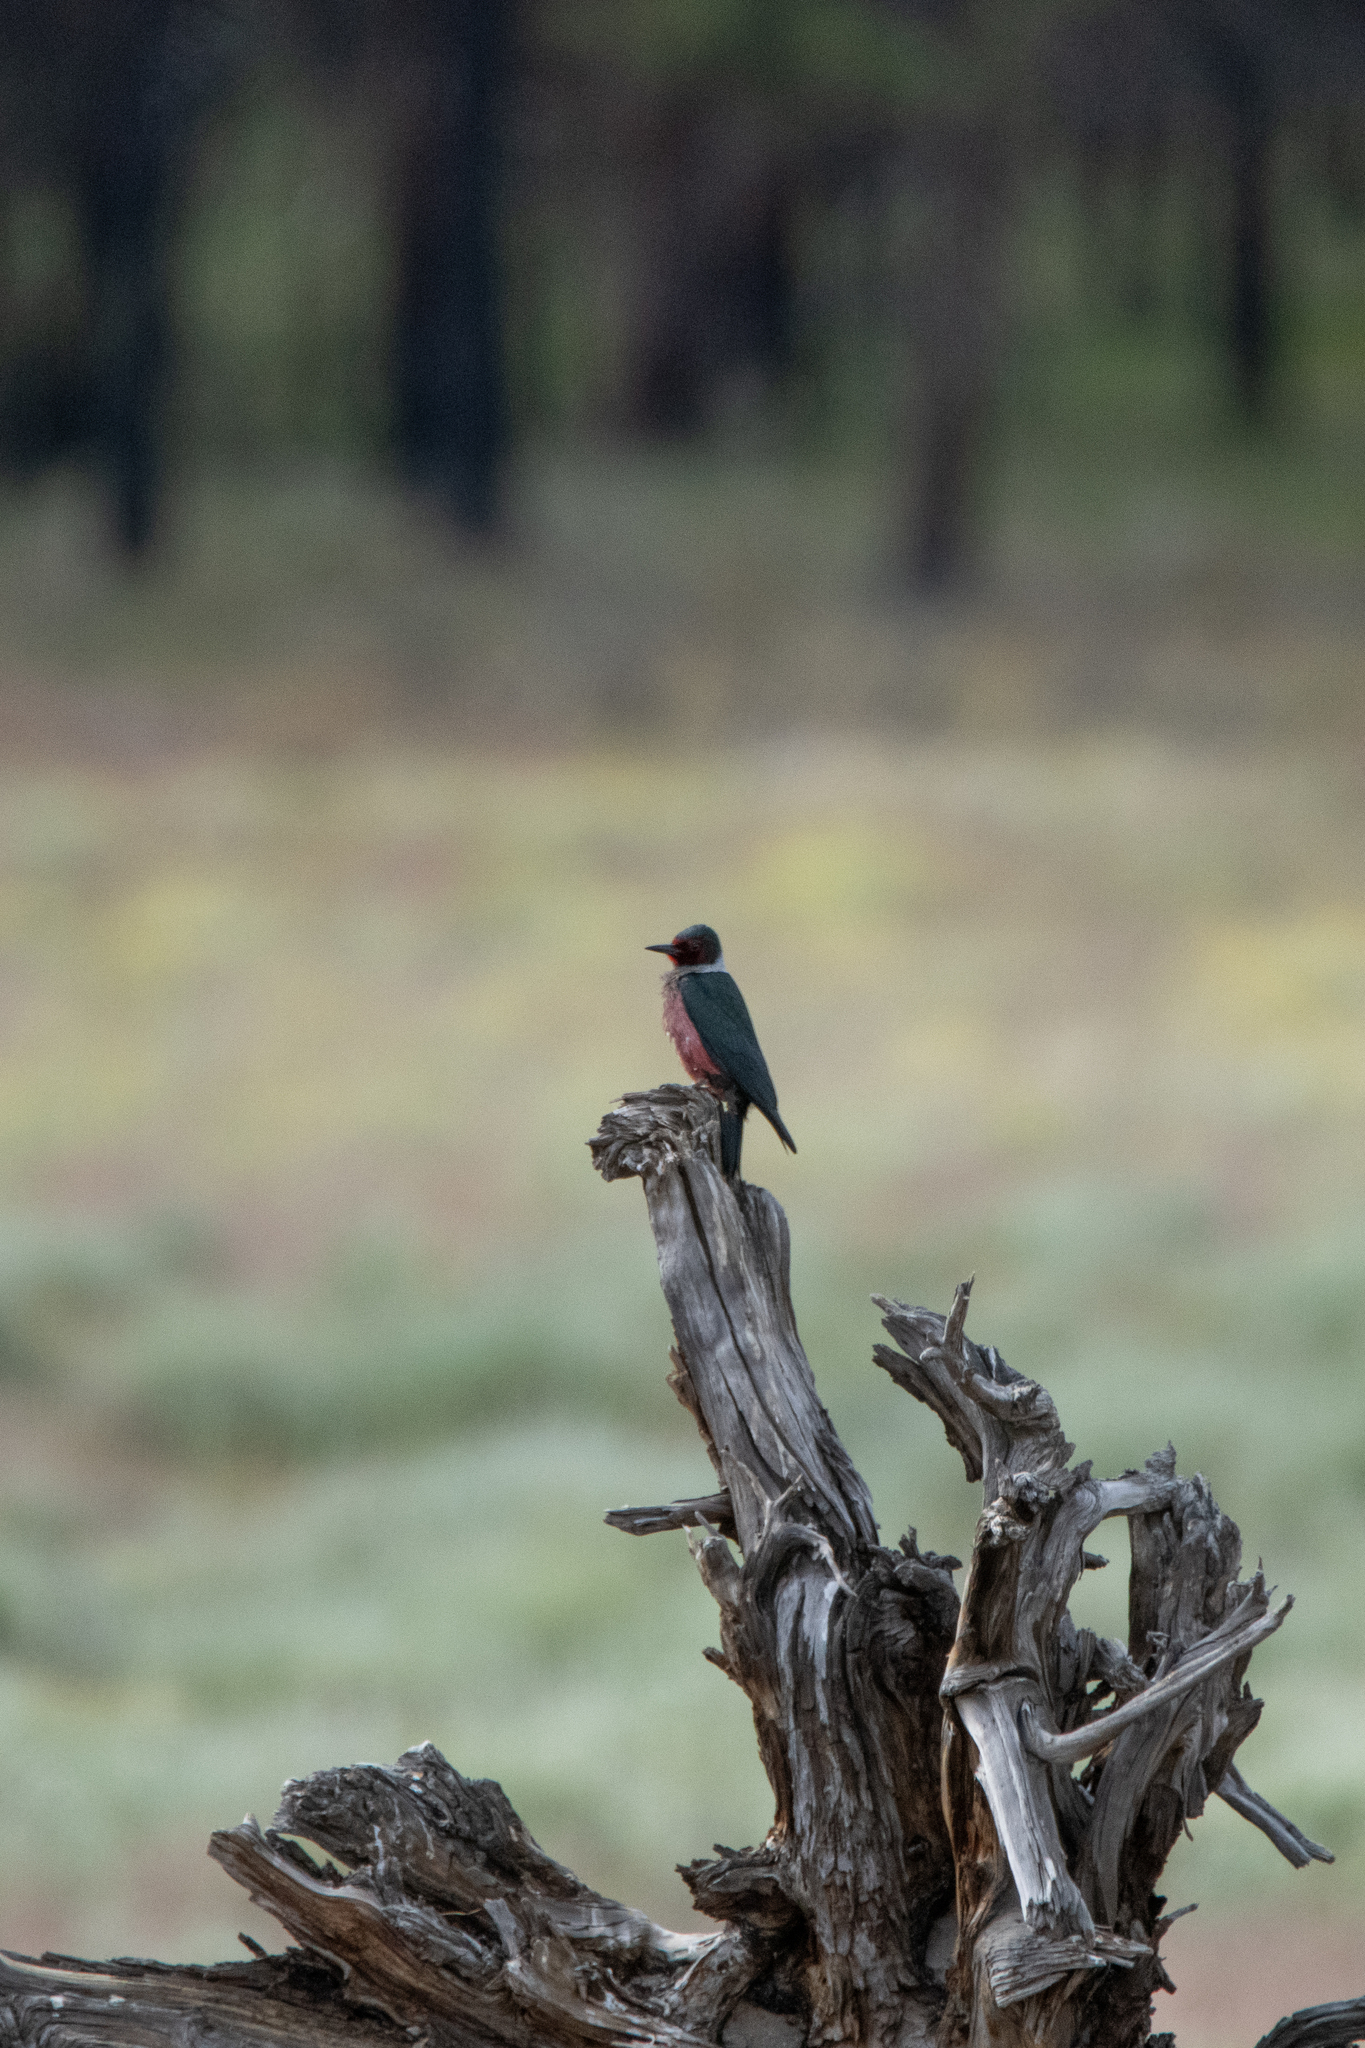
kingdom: Animalia
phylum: Chordata
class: Aves
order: Piciformes
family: Picidae
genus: Melanerpes
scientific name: Melanerpes lewis
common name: Lewis's woodpecker
